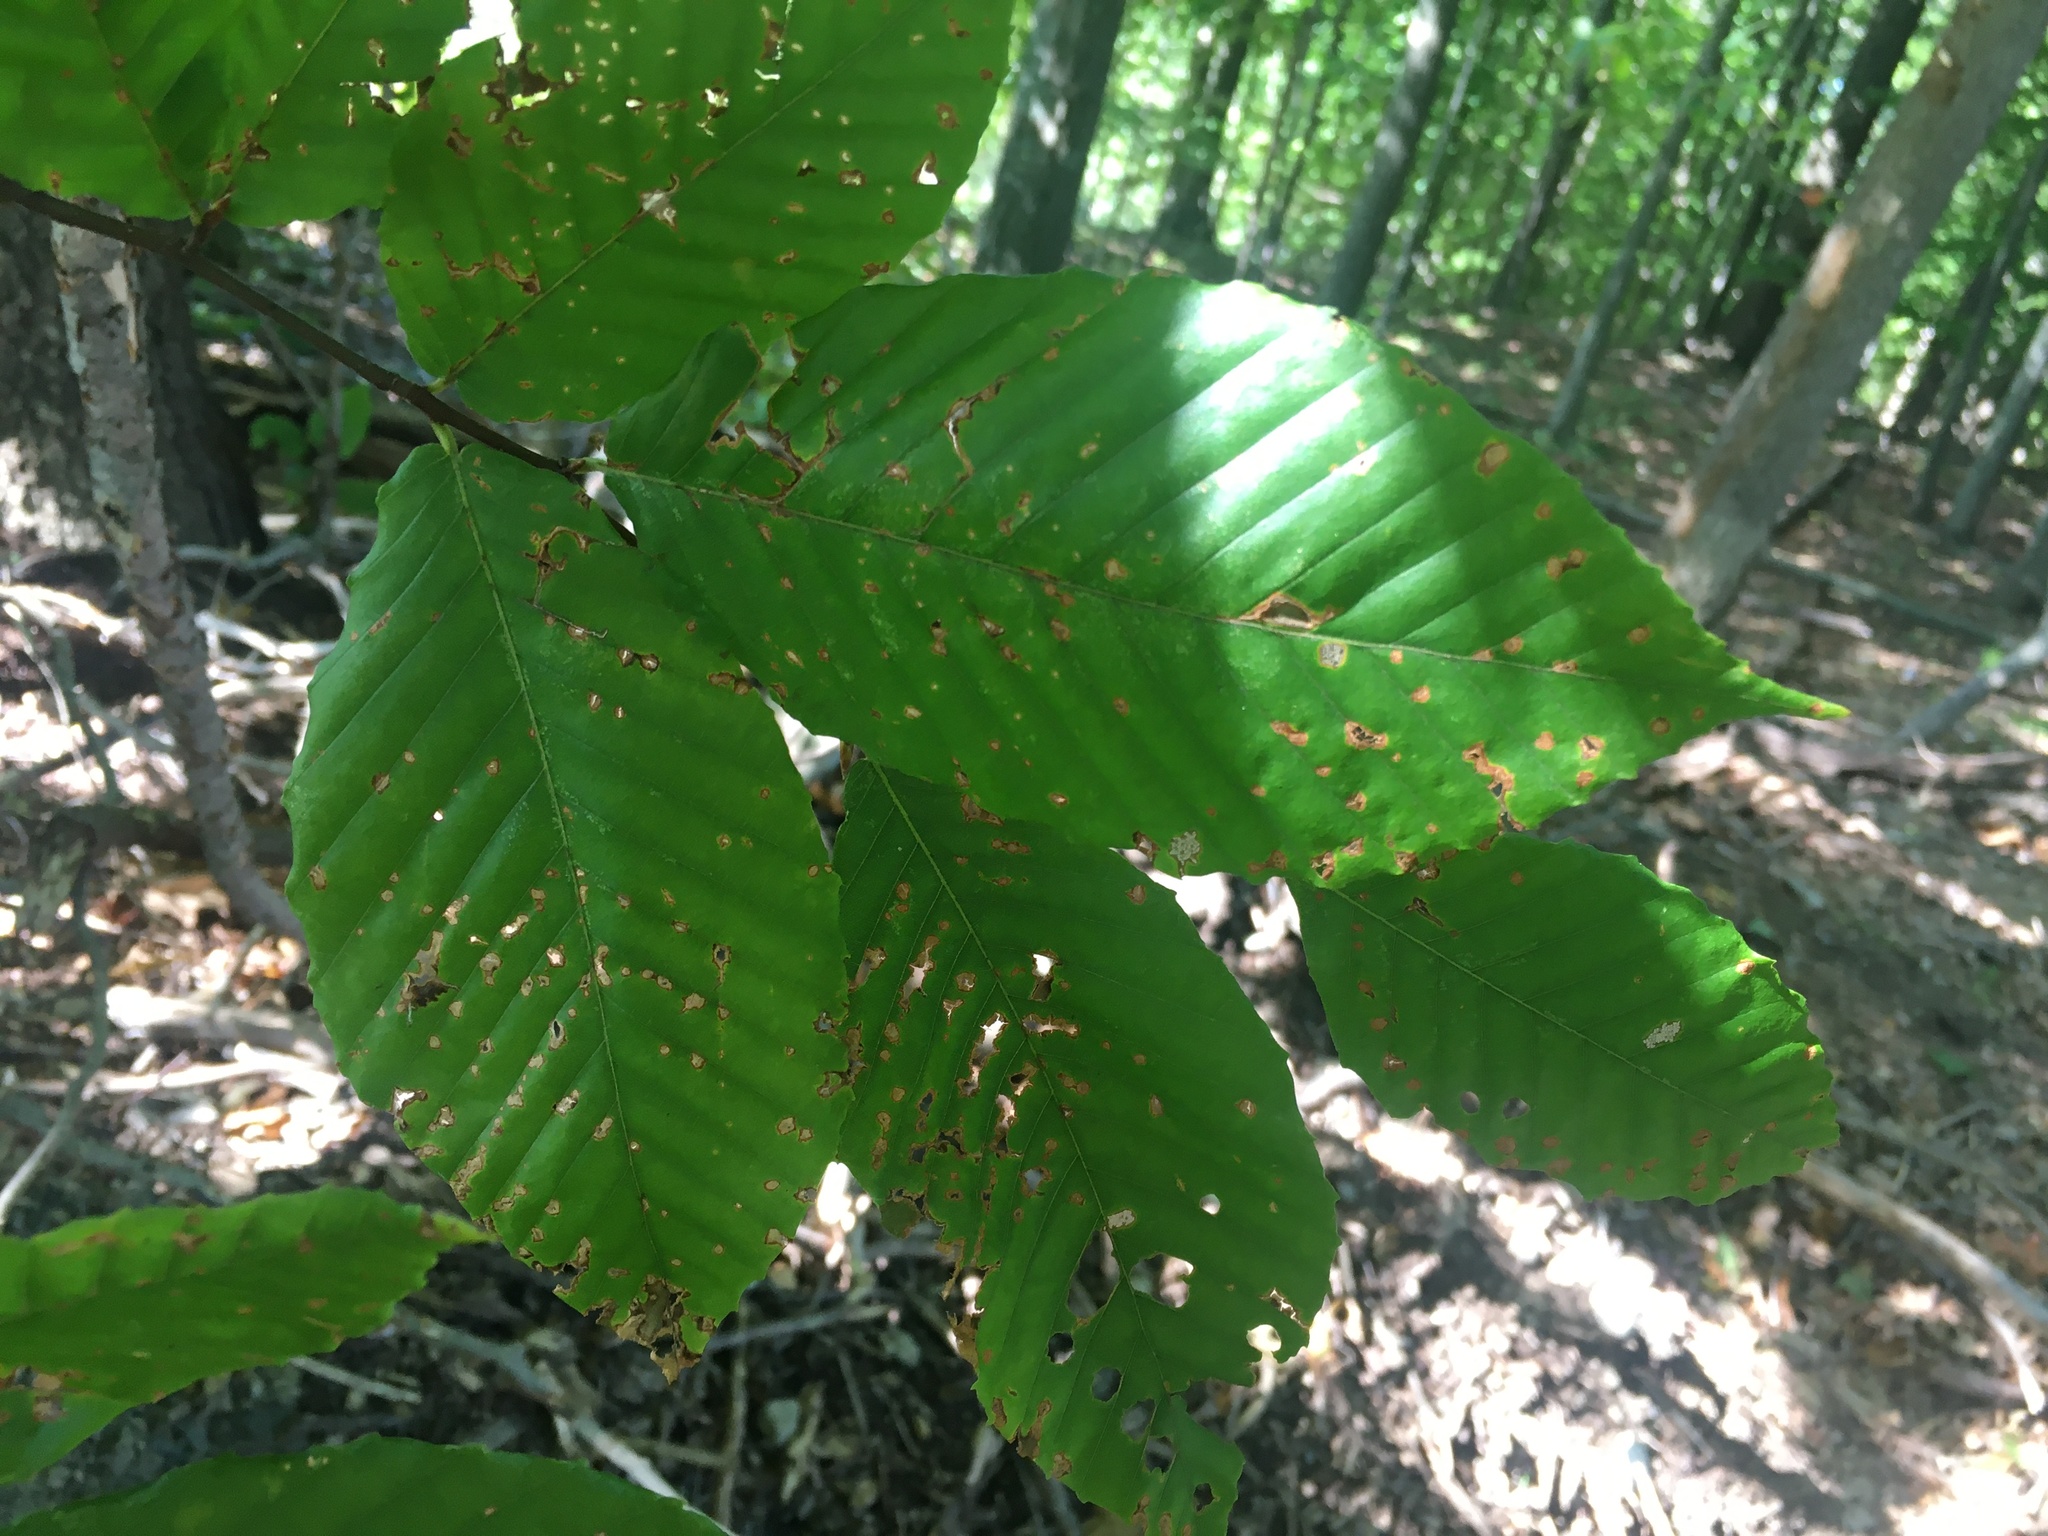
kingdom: Plantae
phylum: Tracheophyta
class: Magnoliopsida
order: Fagales
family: Fagaceae
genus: Fagus
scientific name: Fagus grandifolia
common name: American beech
